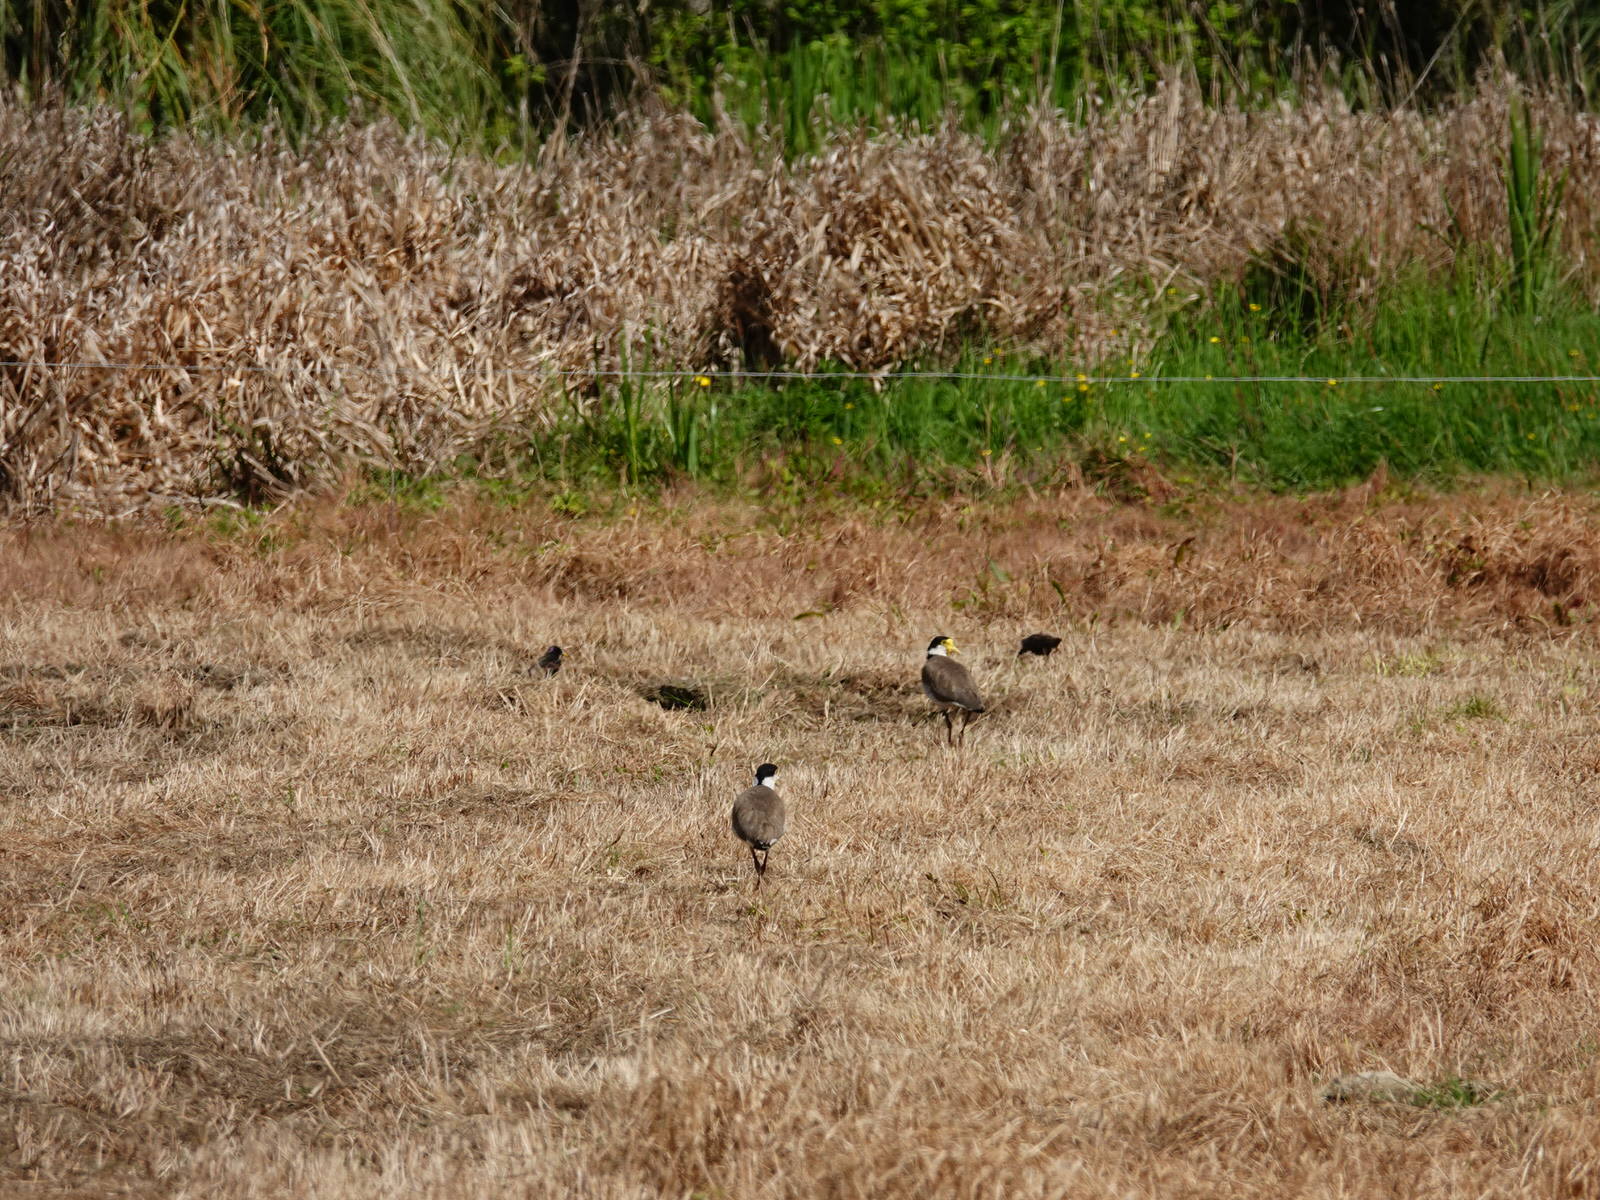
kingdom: Animalia
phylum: Chordata
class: Aves
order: Charadriiformes
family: Charadriidae
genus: Vanellus
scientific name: Vanellus miles
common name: Masked lapwing
